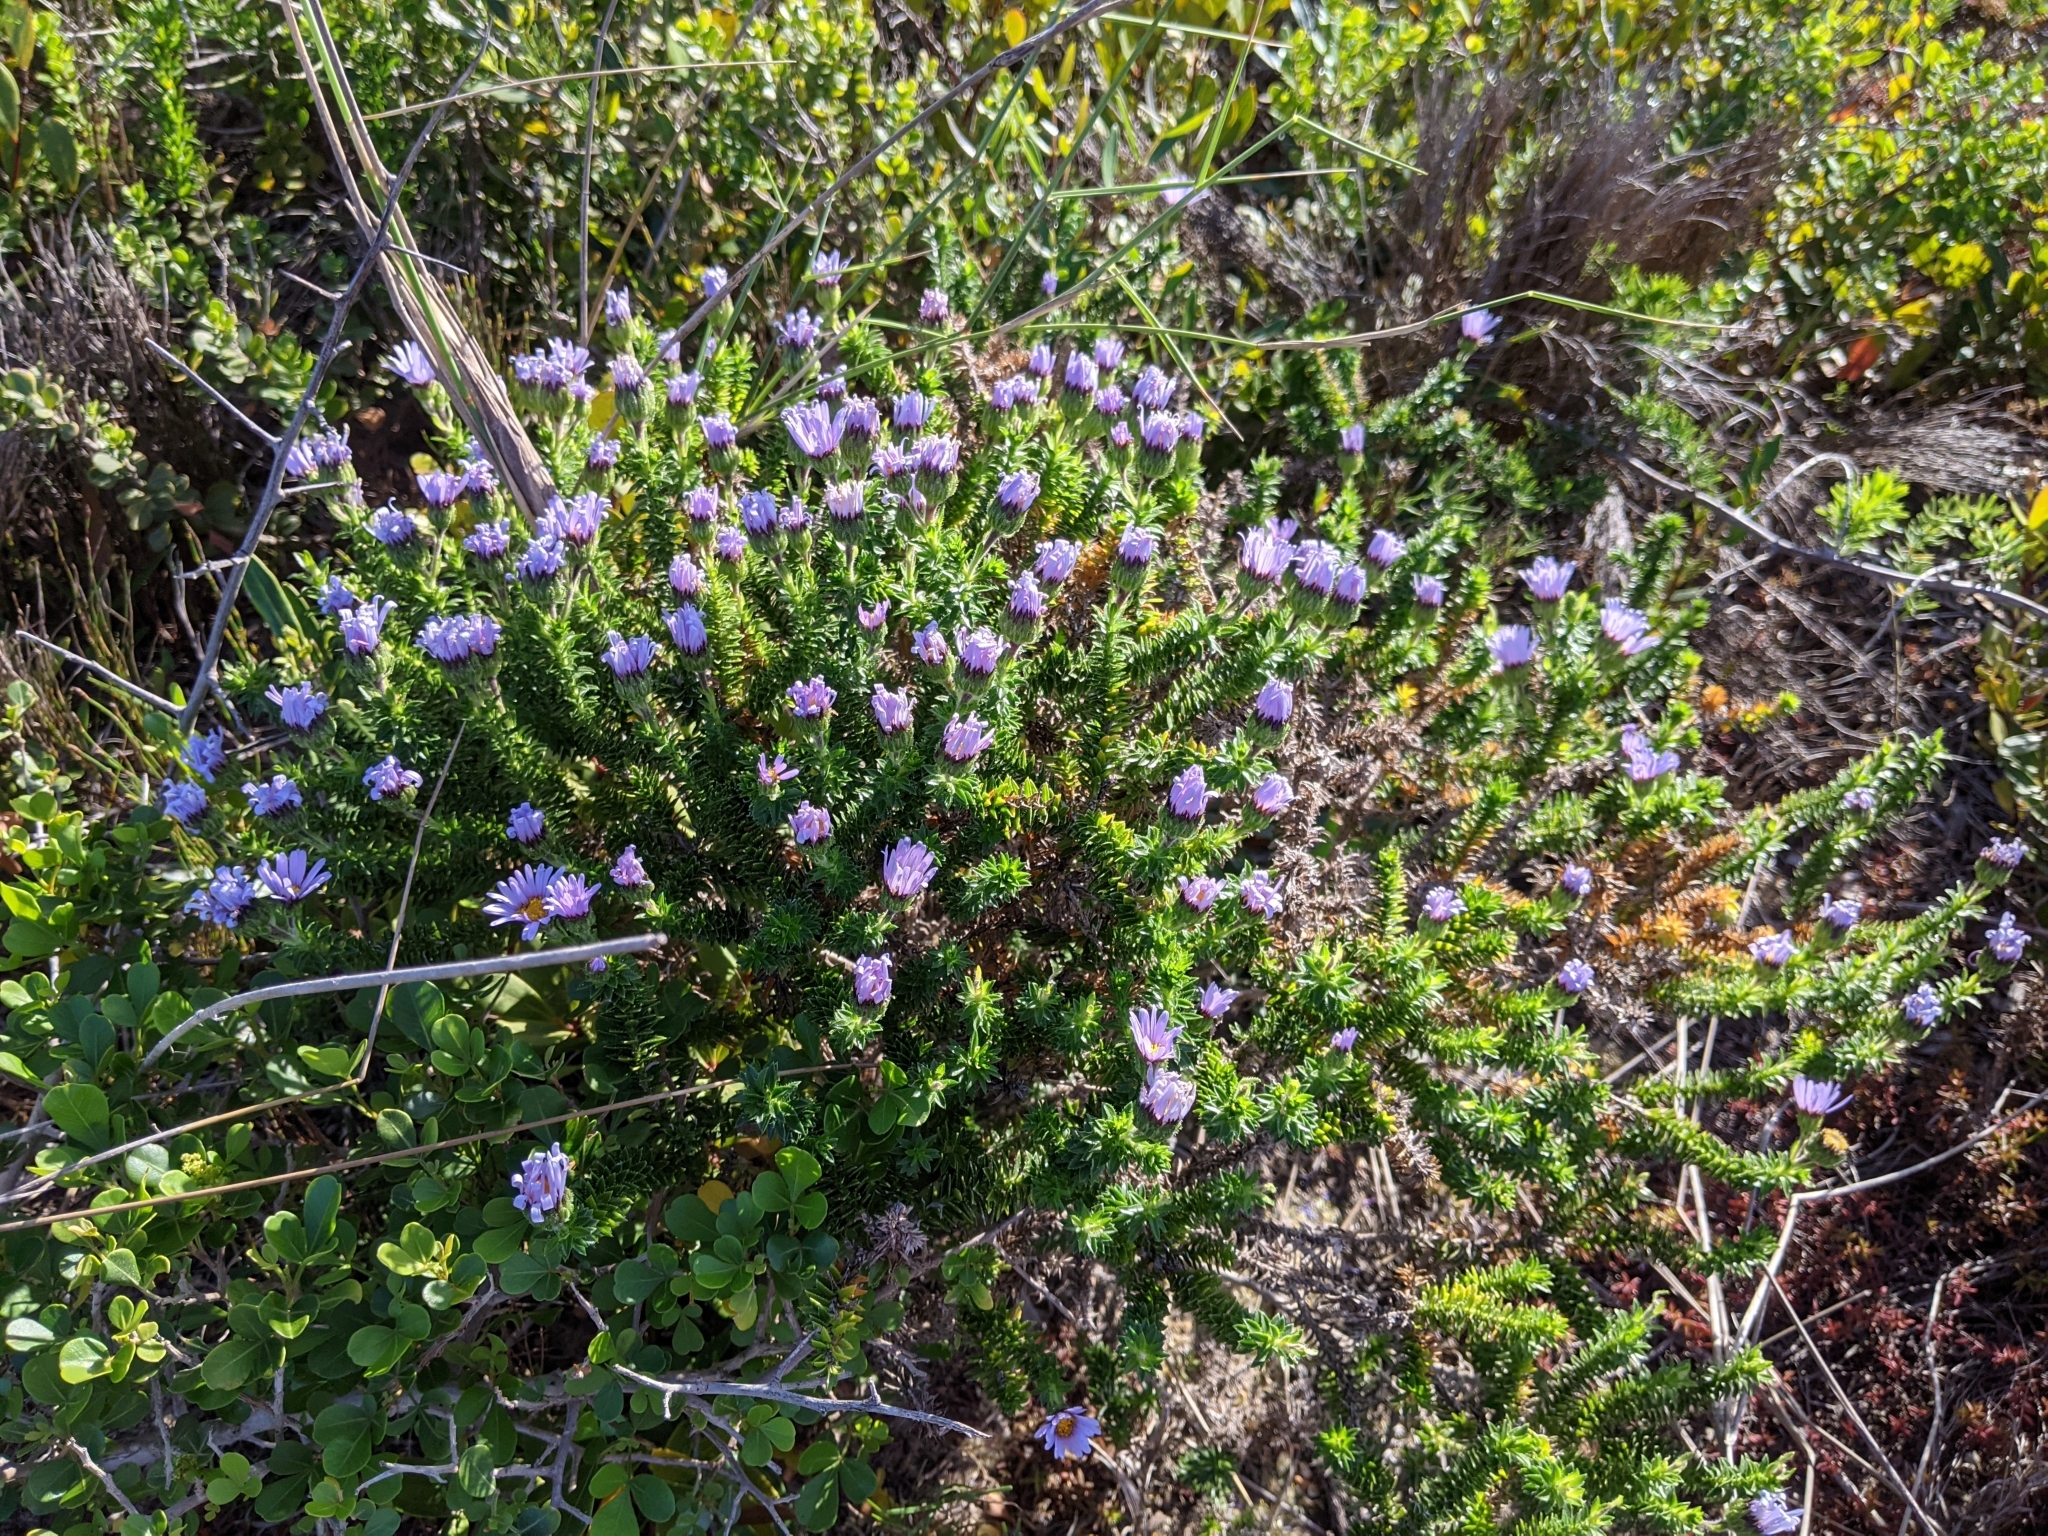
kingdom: Plantae
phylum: Tracheophyta
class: Magnoliopsida
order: Asterales
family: Asteraceae
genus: Felicia
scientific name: Felicia echinata
